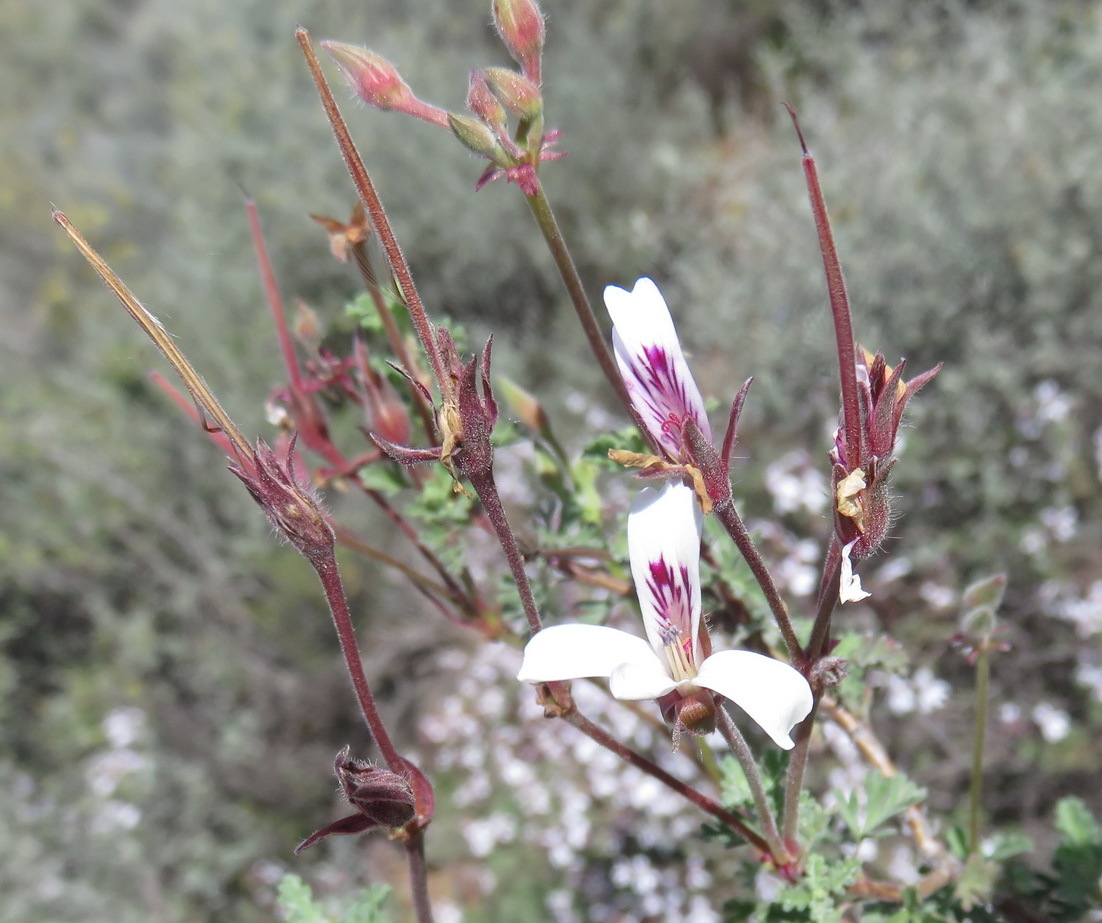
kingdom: Plantae
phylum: Tracheophyta
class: Magnoliopsida
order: Geraniales
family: Geraniaceae
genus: Pelargonium
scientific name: Pelargonium abrotanifolium
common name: Southernwood geranium
